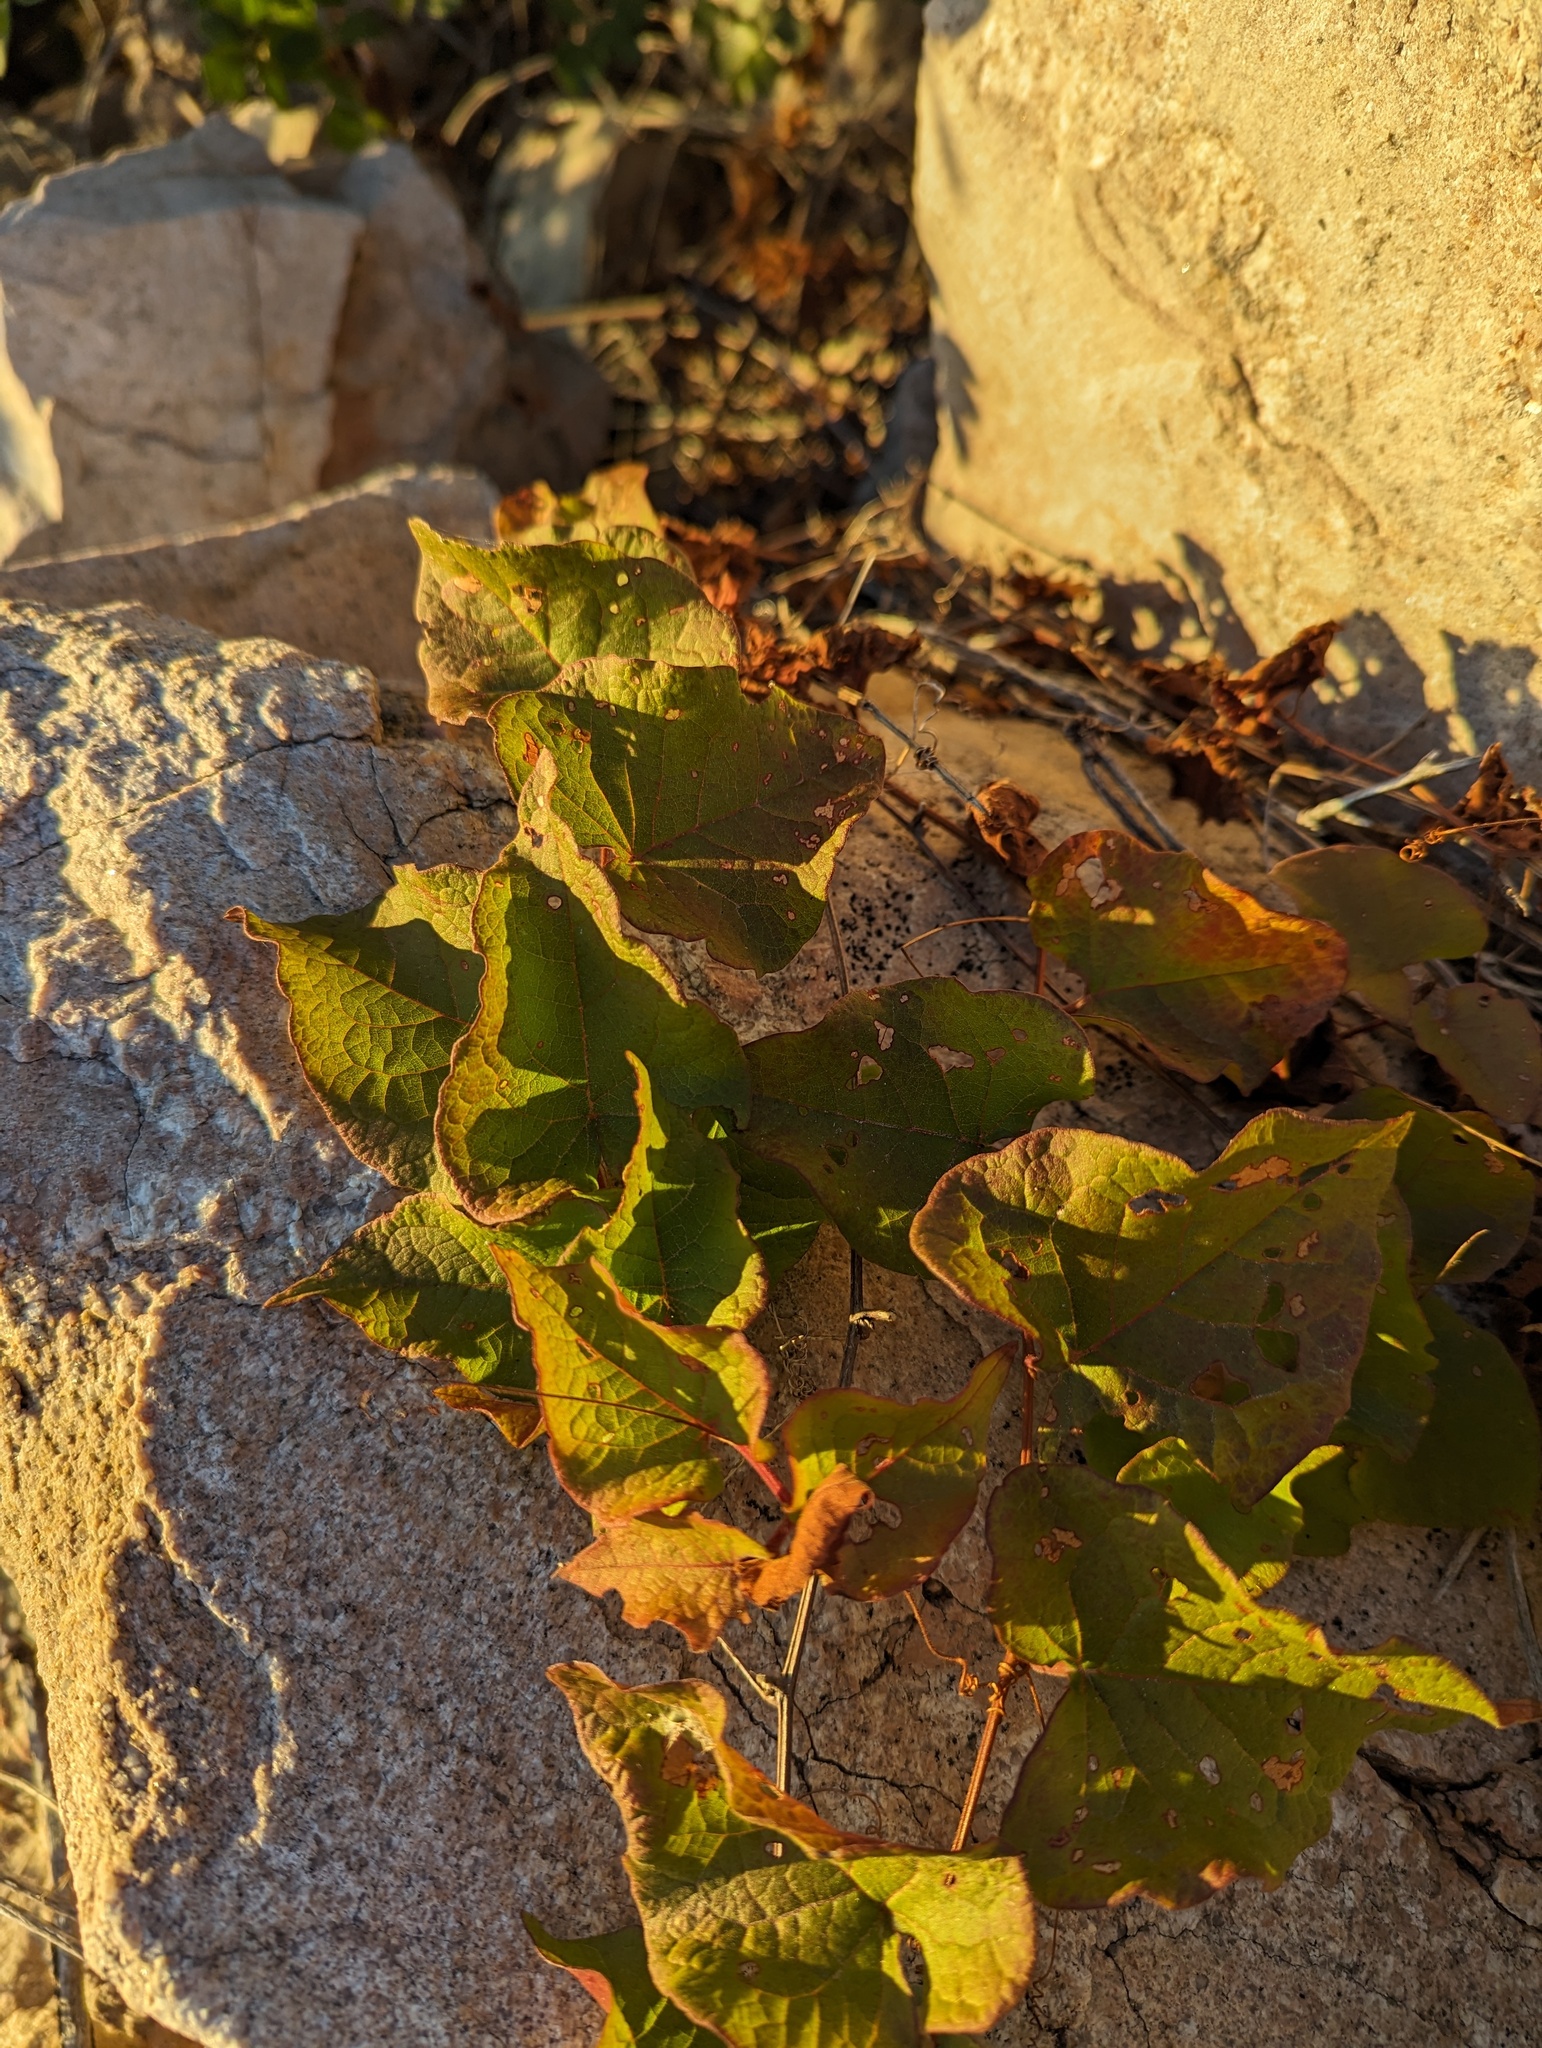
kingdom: Plantae
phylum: Tracheophyta
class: Magnoliopsida
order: Caryophyllales
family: Polygonaceae
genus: Antigonon
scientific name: Antigonon leptopus
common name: Coral vine
